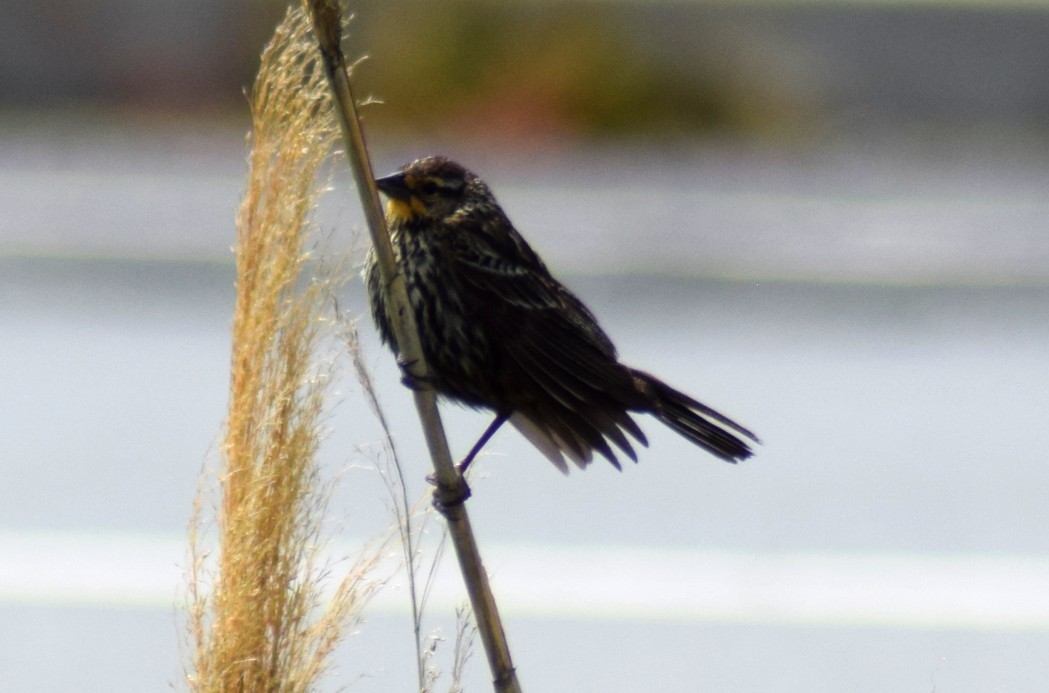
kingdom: Animalia
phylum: Chordata
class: Aves
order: Passeriformes
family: Icteridae
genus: Agelaius
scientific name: Agelaius phoeniceus
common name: Red-winged blackbird
